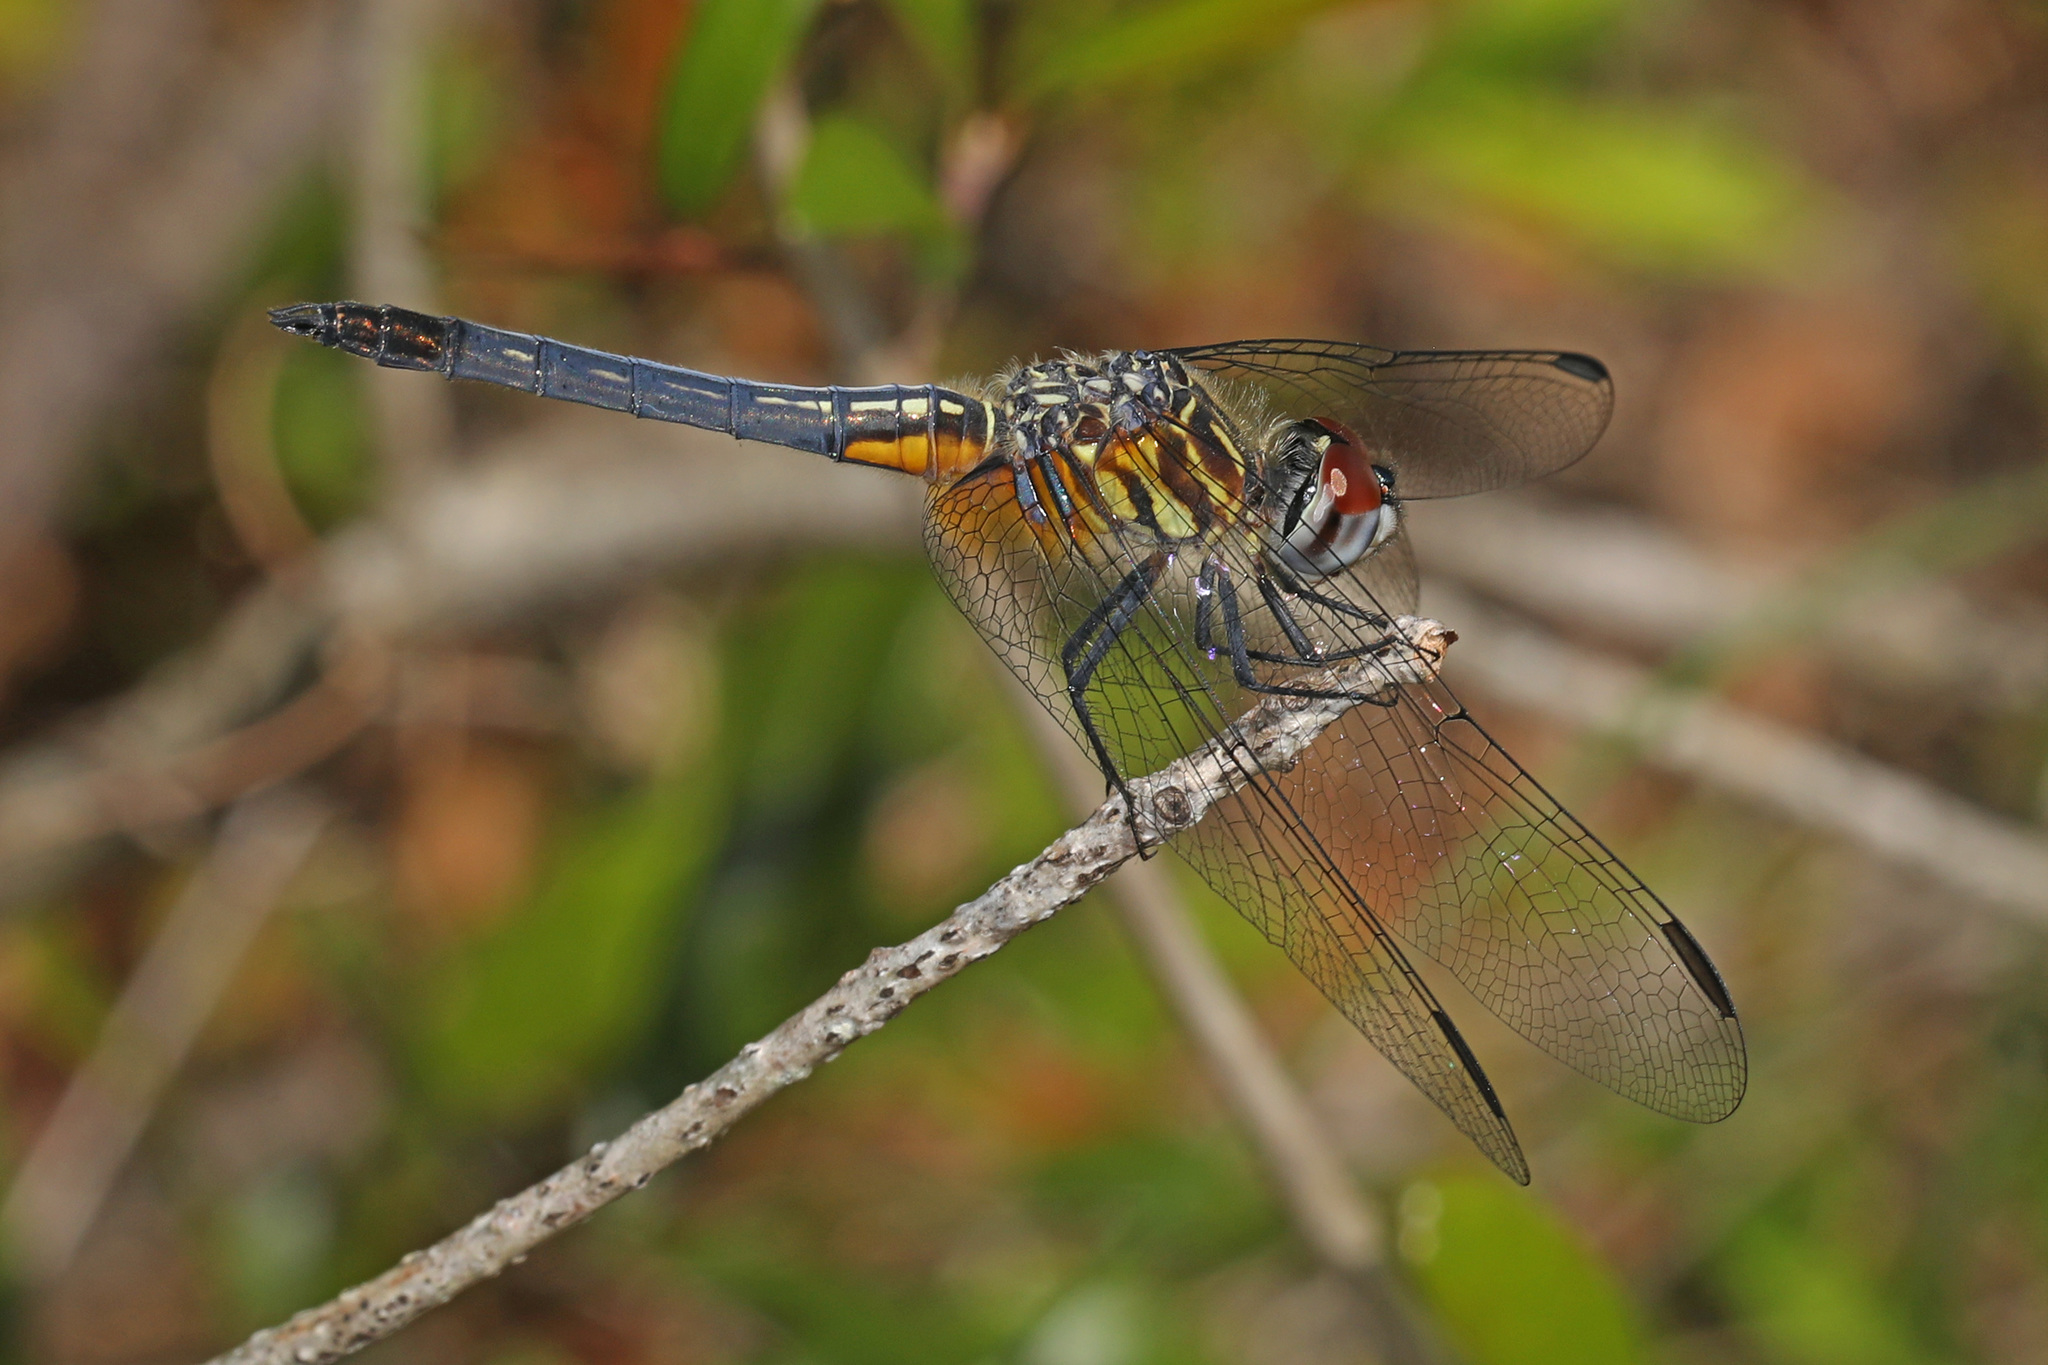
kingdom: Animalia
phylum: Arthropoda
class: Insecta
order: Odonata
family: Libellulidae
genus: Pachydiplax
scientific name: Pachydiplax longipennis
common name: Blue dasher
